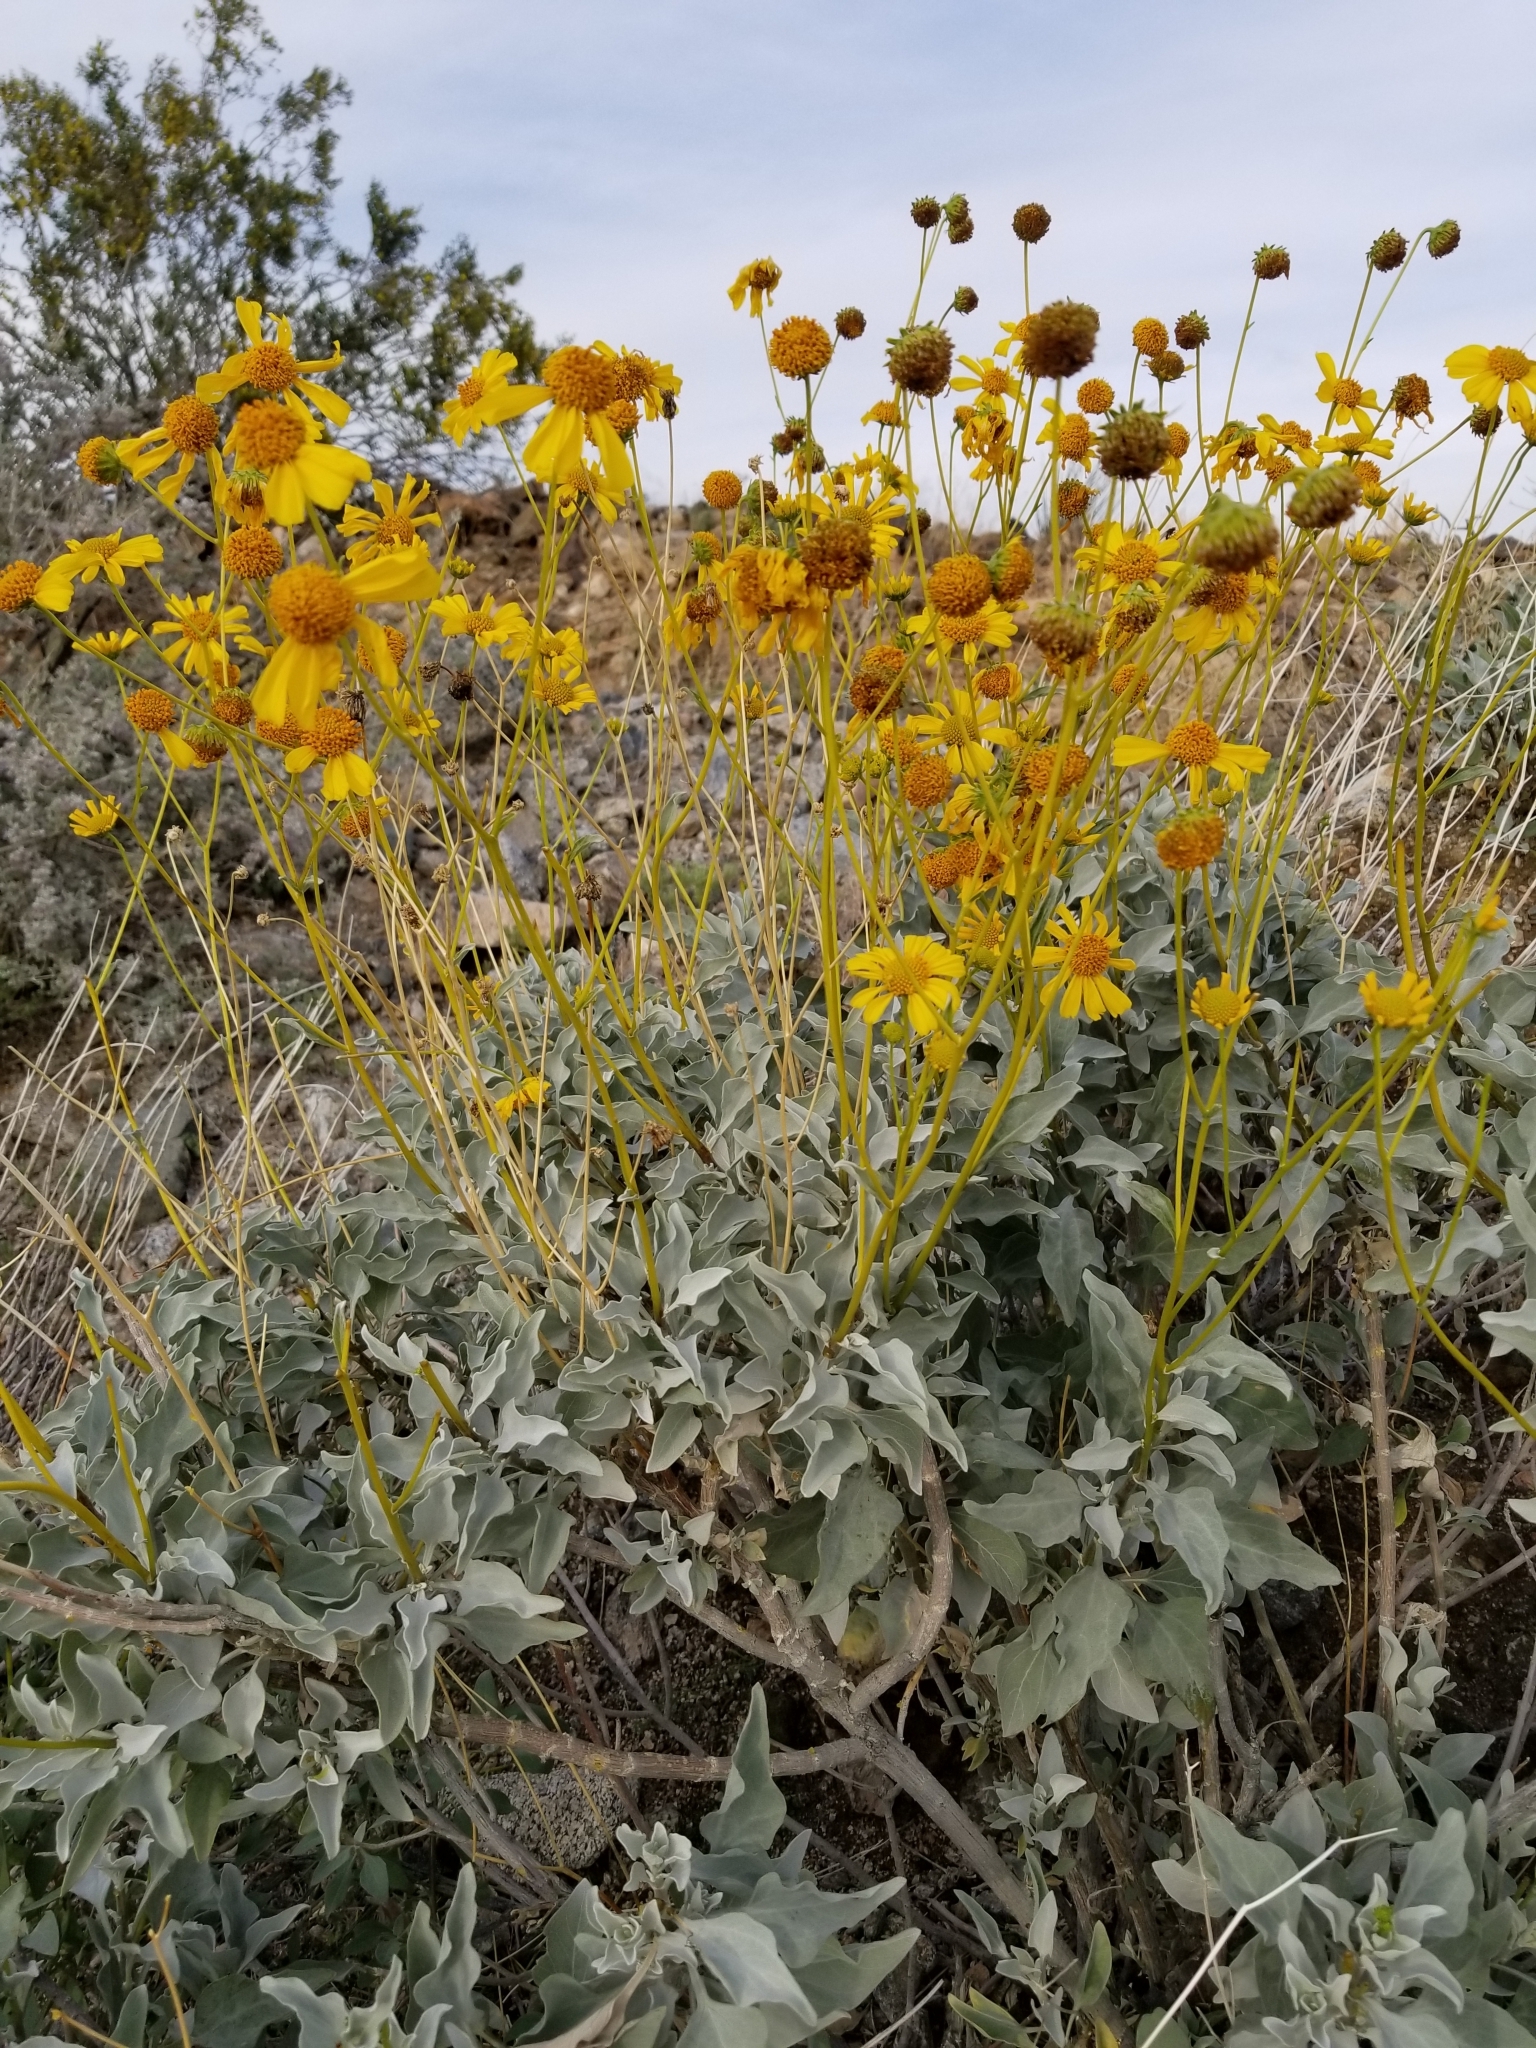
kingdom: Plantae
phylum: Tracheophyta
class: Magnoliopsida
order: Asterales
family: Asteraceae
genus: Encelia
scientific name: Encelia farinosa
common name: Brittlebush
